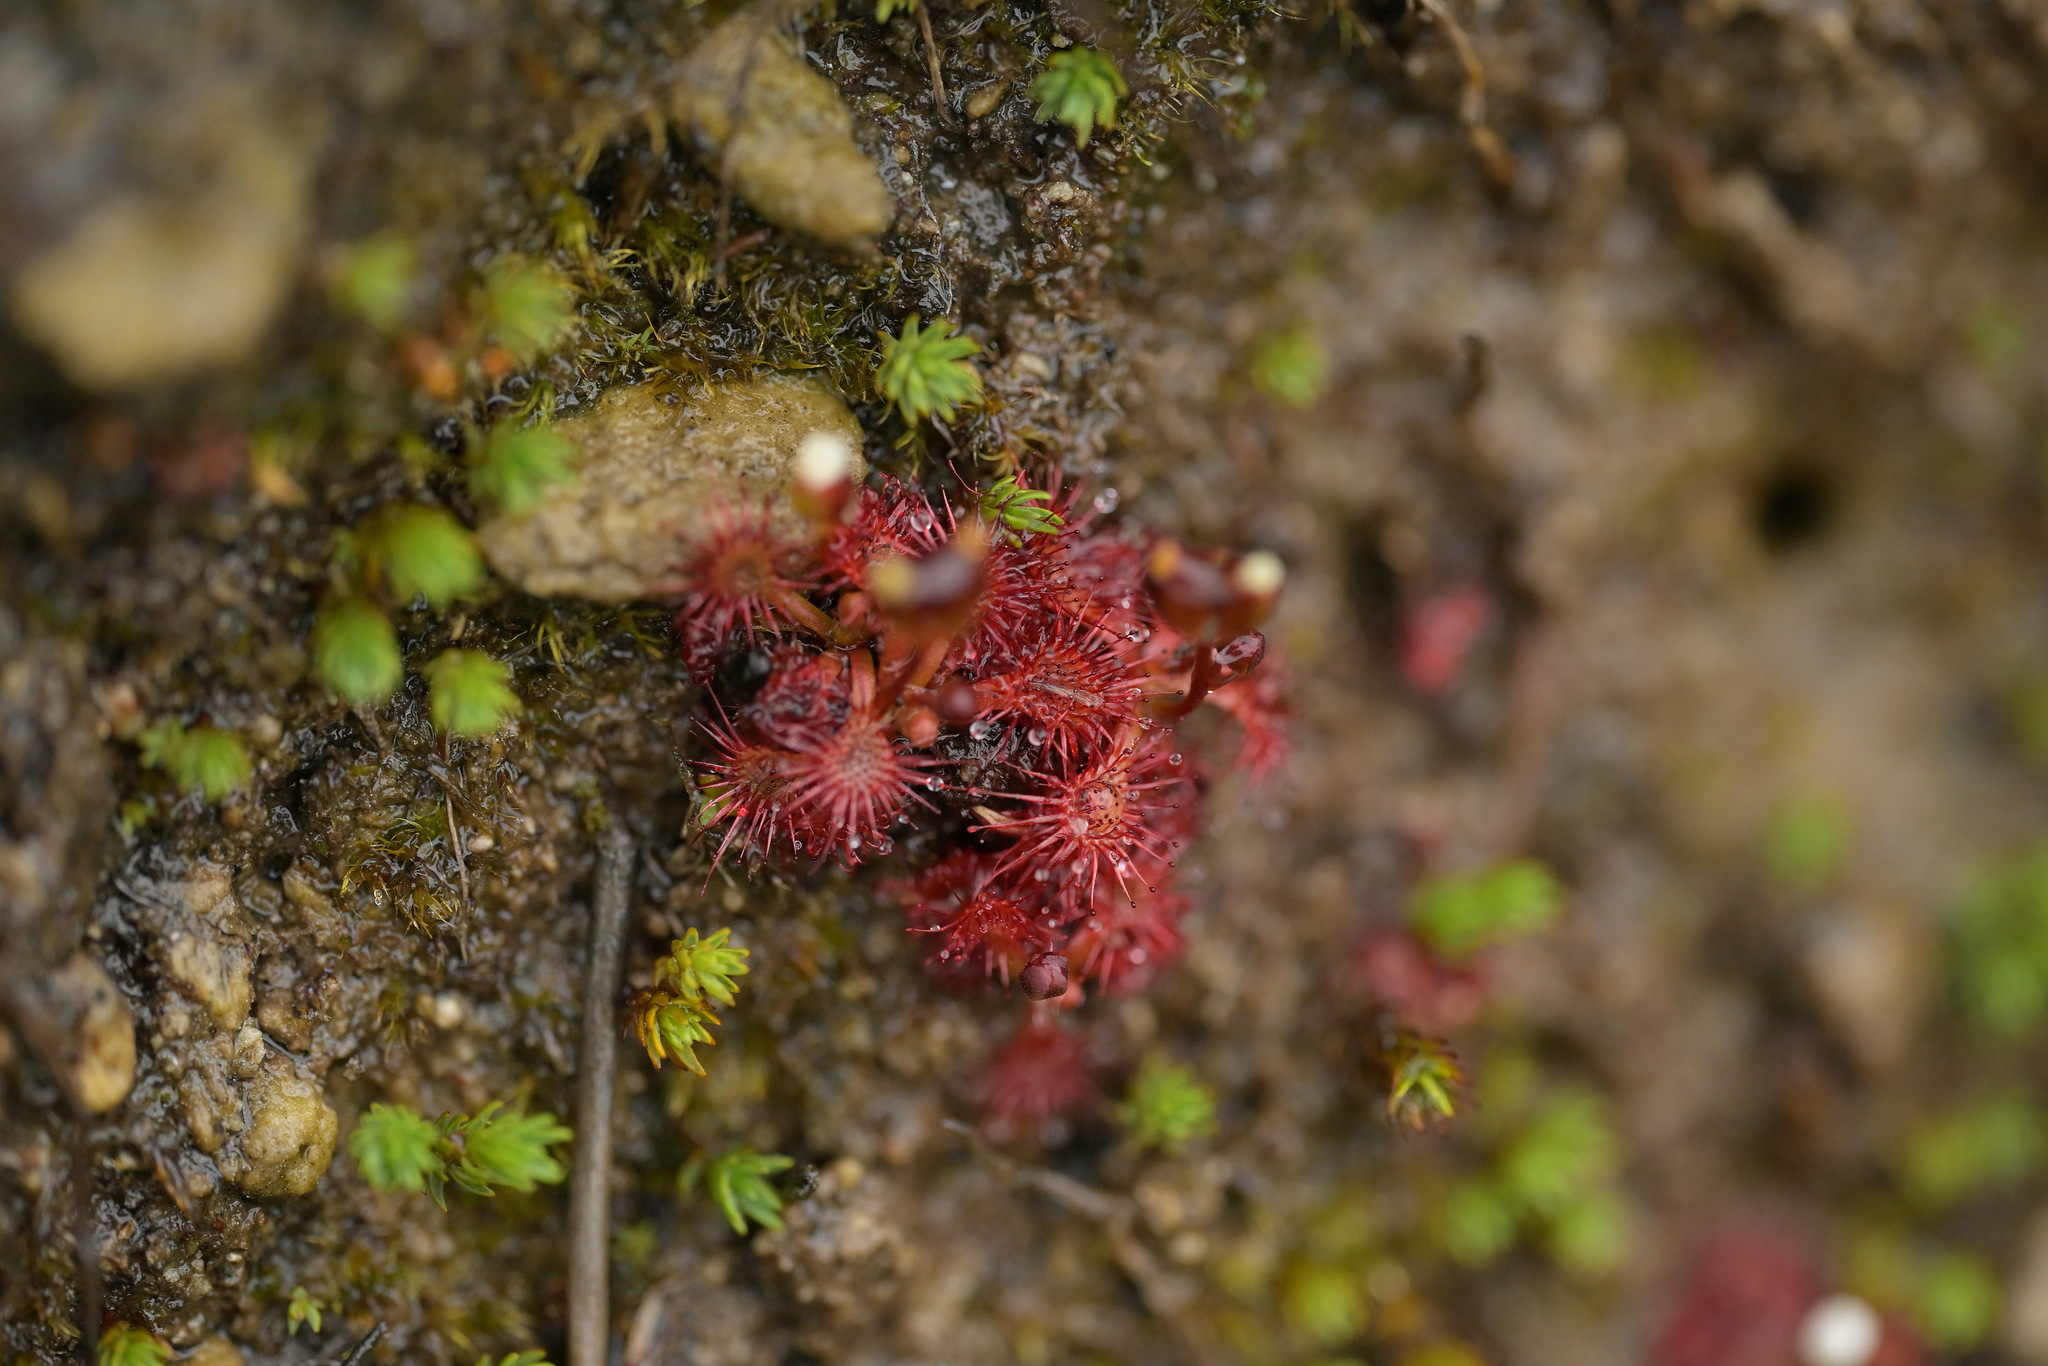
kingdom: Plantae
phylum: Tracheophyta
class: Magnoliopsida
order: Caryophyllales
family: Droseraceae
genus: Drosera
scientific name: Drosera spatulata
